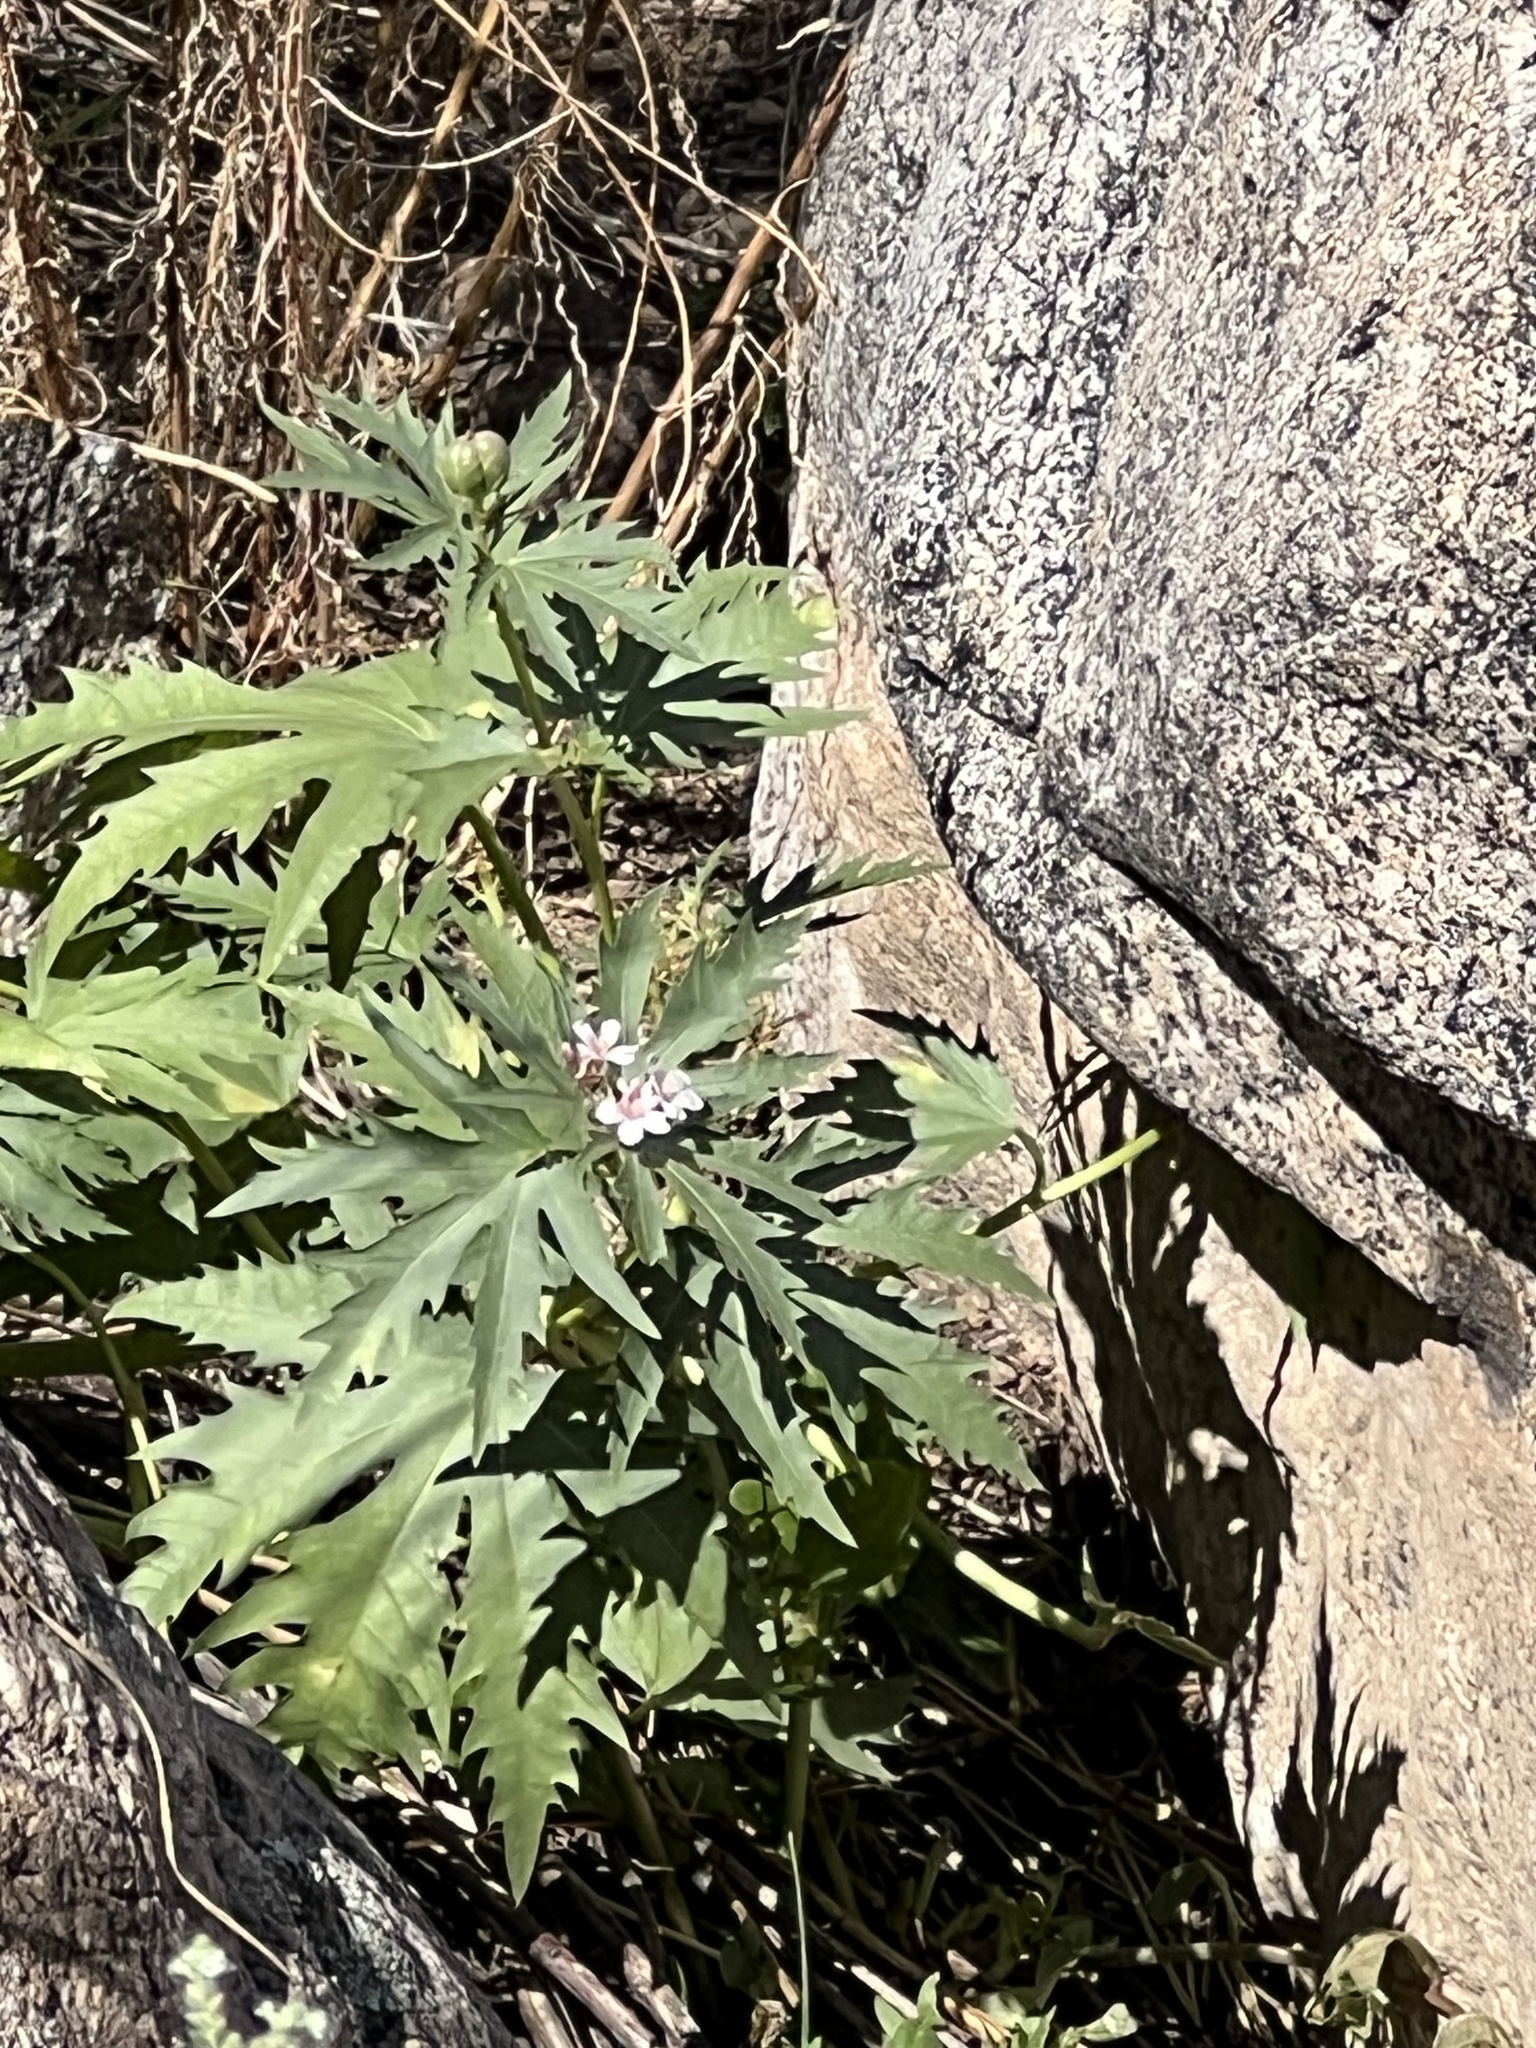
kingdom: Plantae
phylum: Tracheophyta
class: Magnoliopsida
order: Malpighiales
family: Euphorbiaceae
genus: Jatropha
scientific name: Jatropha macrorhiza
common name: Ragged nettlespurge
